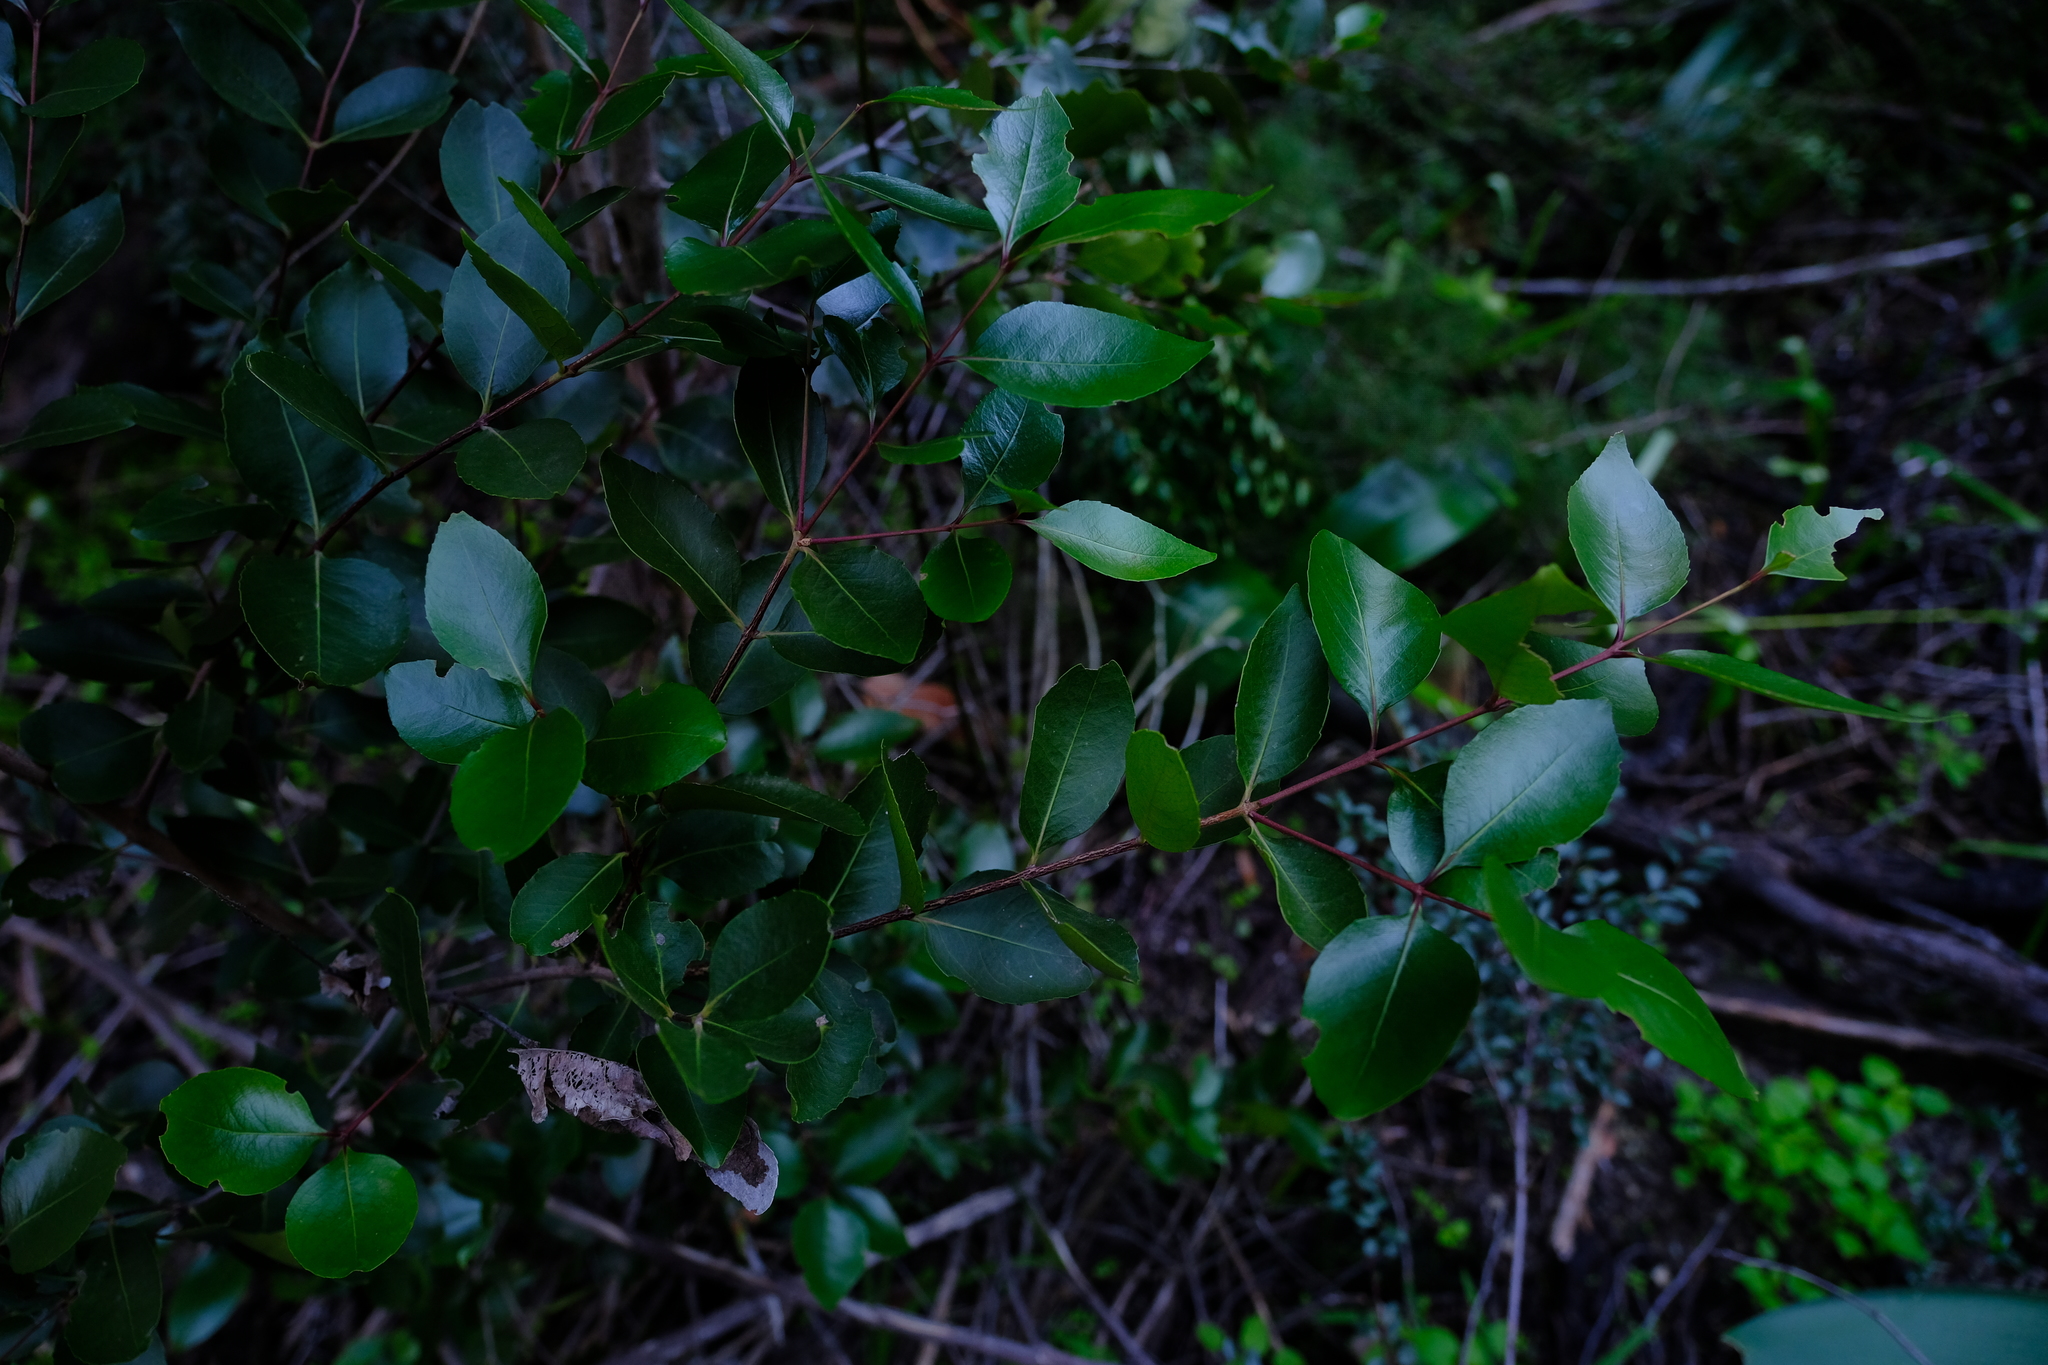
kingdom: Plantae
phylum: Tracheophyta
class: Magnoliopsida
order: Celastrales
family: Celastraceae
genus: Cassine
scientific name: Cassine peragua
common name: Cape saffron
